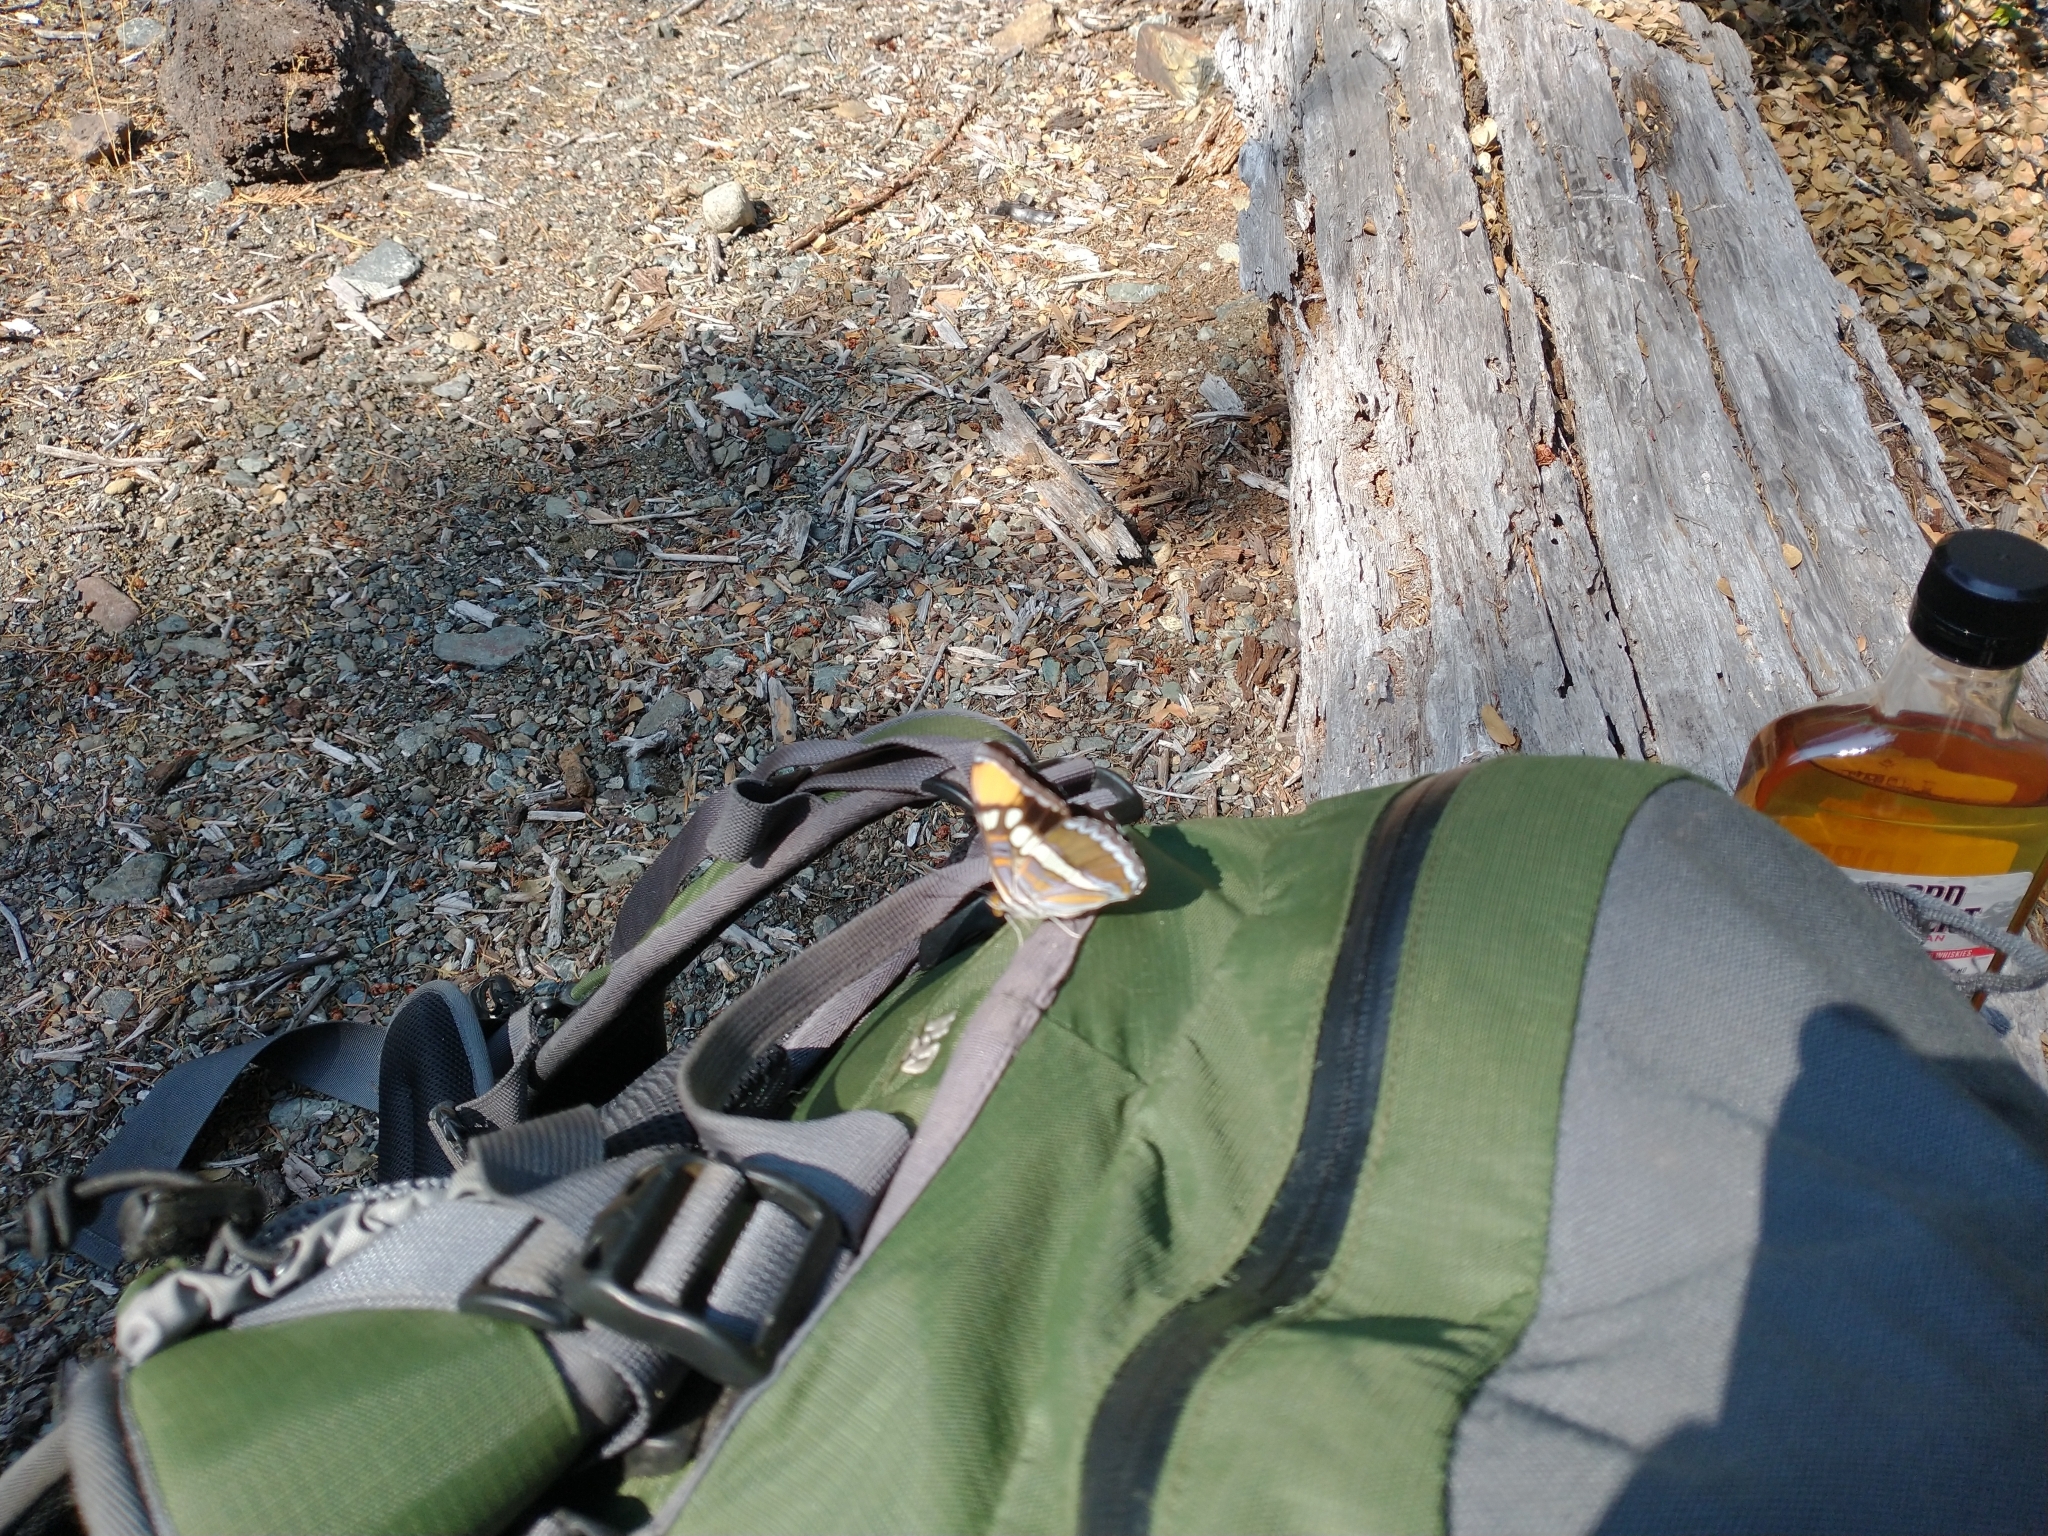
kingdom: Animalia
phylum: Arthropoda
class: Insecta
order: Lepidoptera
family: Nymphalidae
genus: Limenitis
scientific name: Limenitis bredowii
